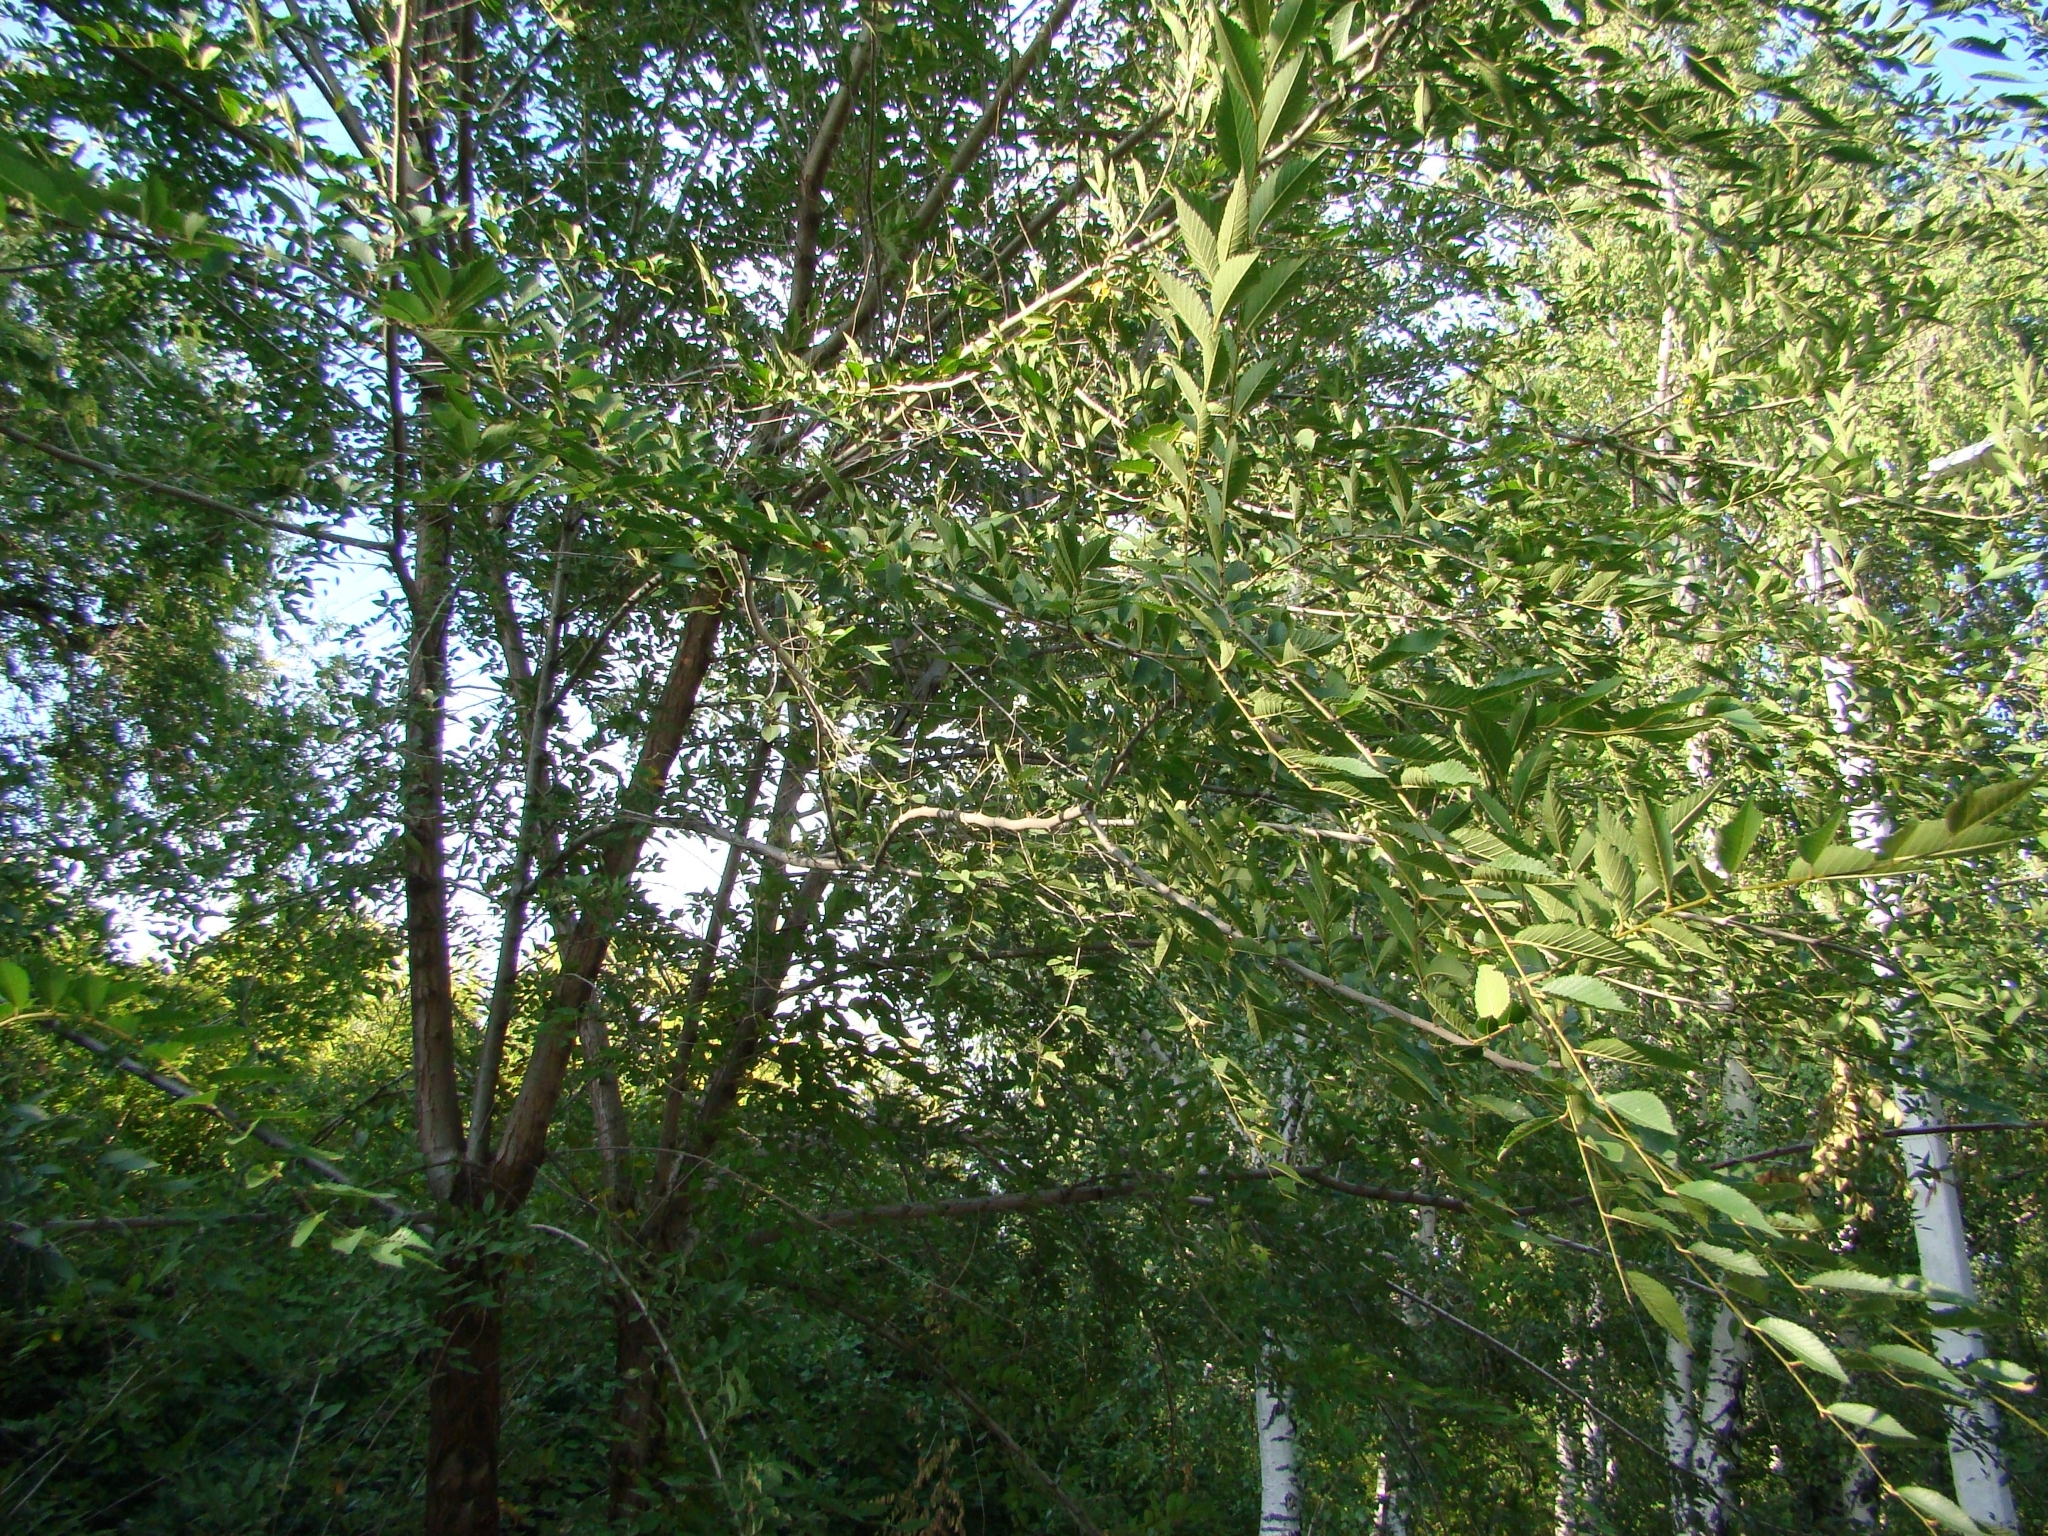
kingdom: Plantae
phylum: Tracheophyta
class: Magnoliopsida
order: Rosales
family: Ulmaceae
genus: Ulmus
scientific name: Ulmus pumila
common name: Siberian elm
